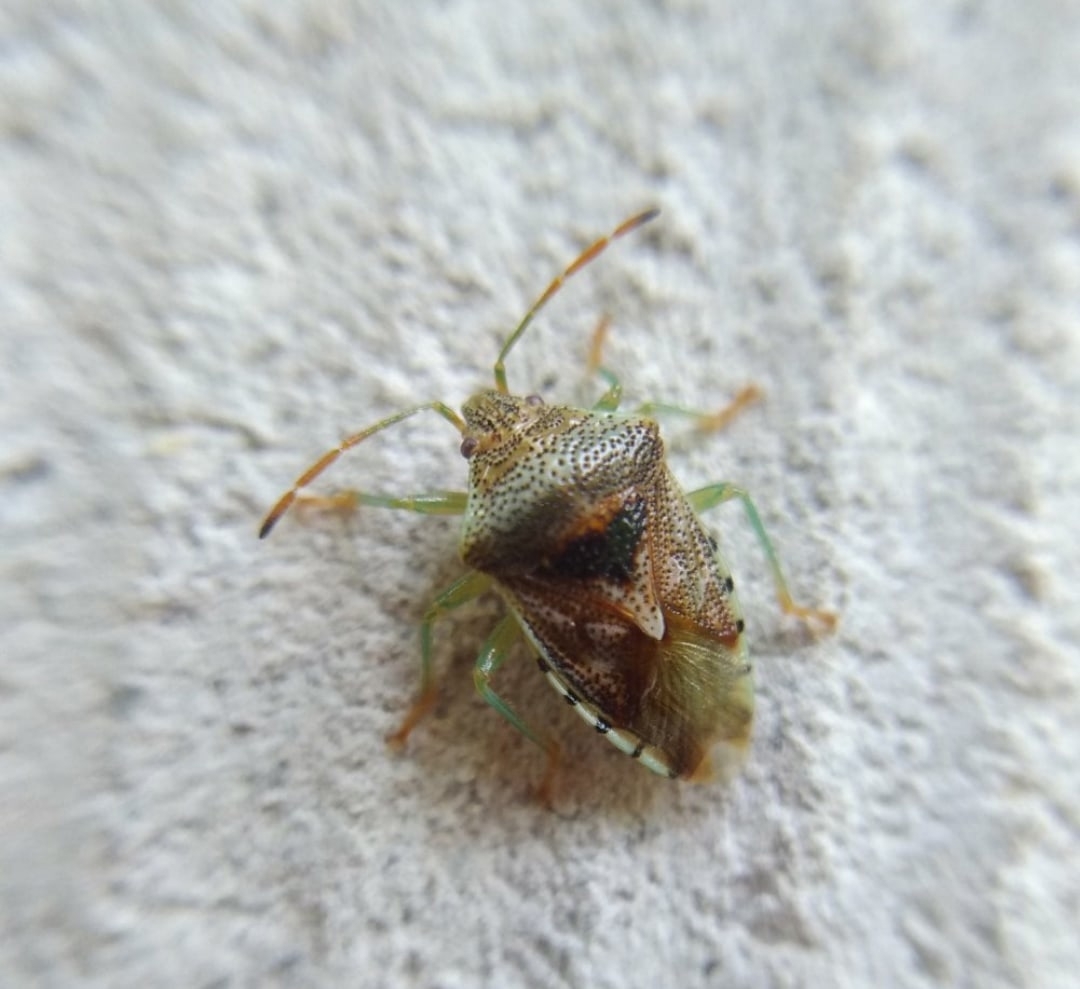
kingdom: Animalia
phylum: Arthropoda
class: Insecta
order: Hemiptera
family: Acanthosomatidae
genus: Elasmucha
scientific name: Elasmucha grisea
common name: Parent bug
